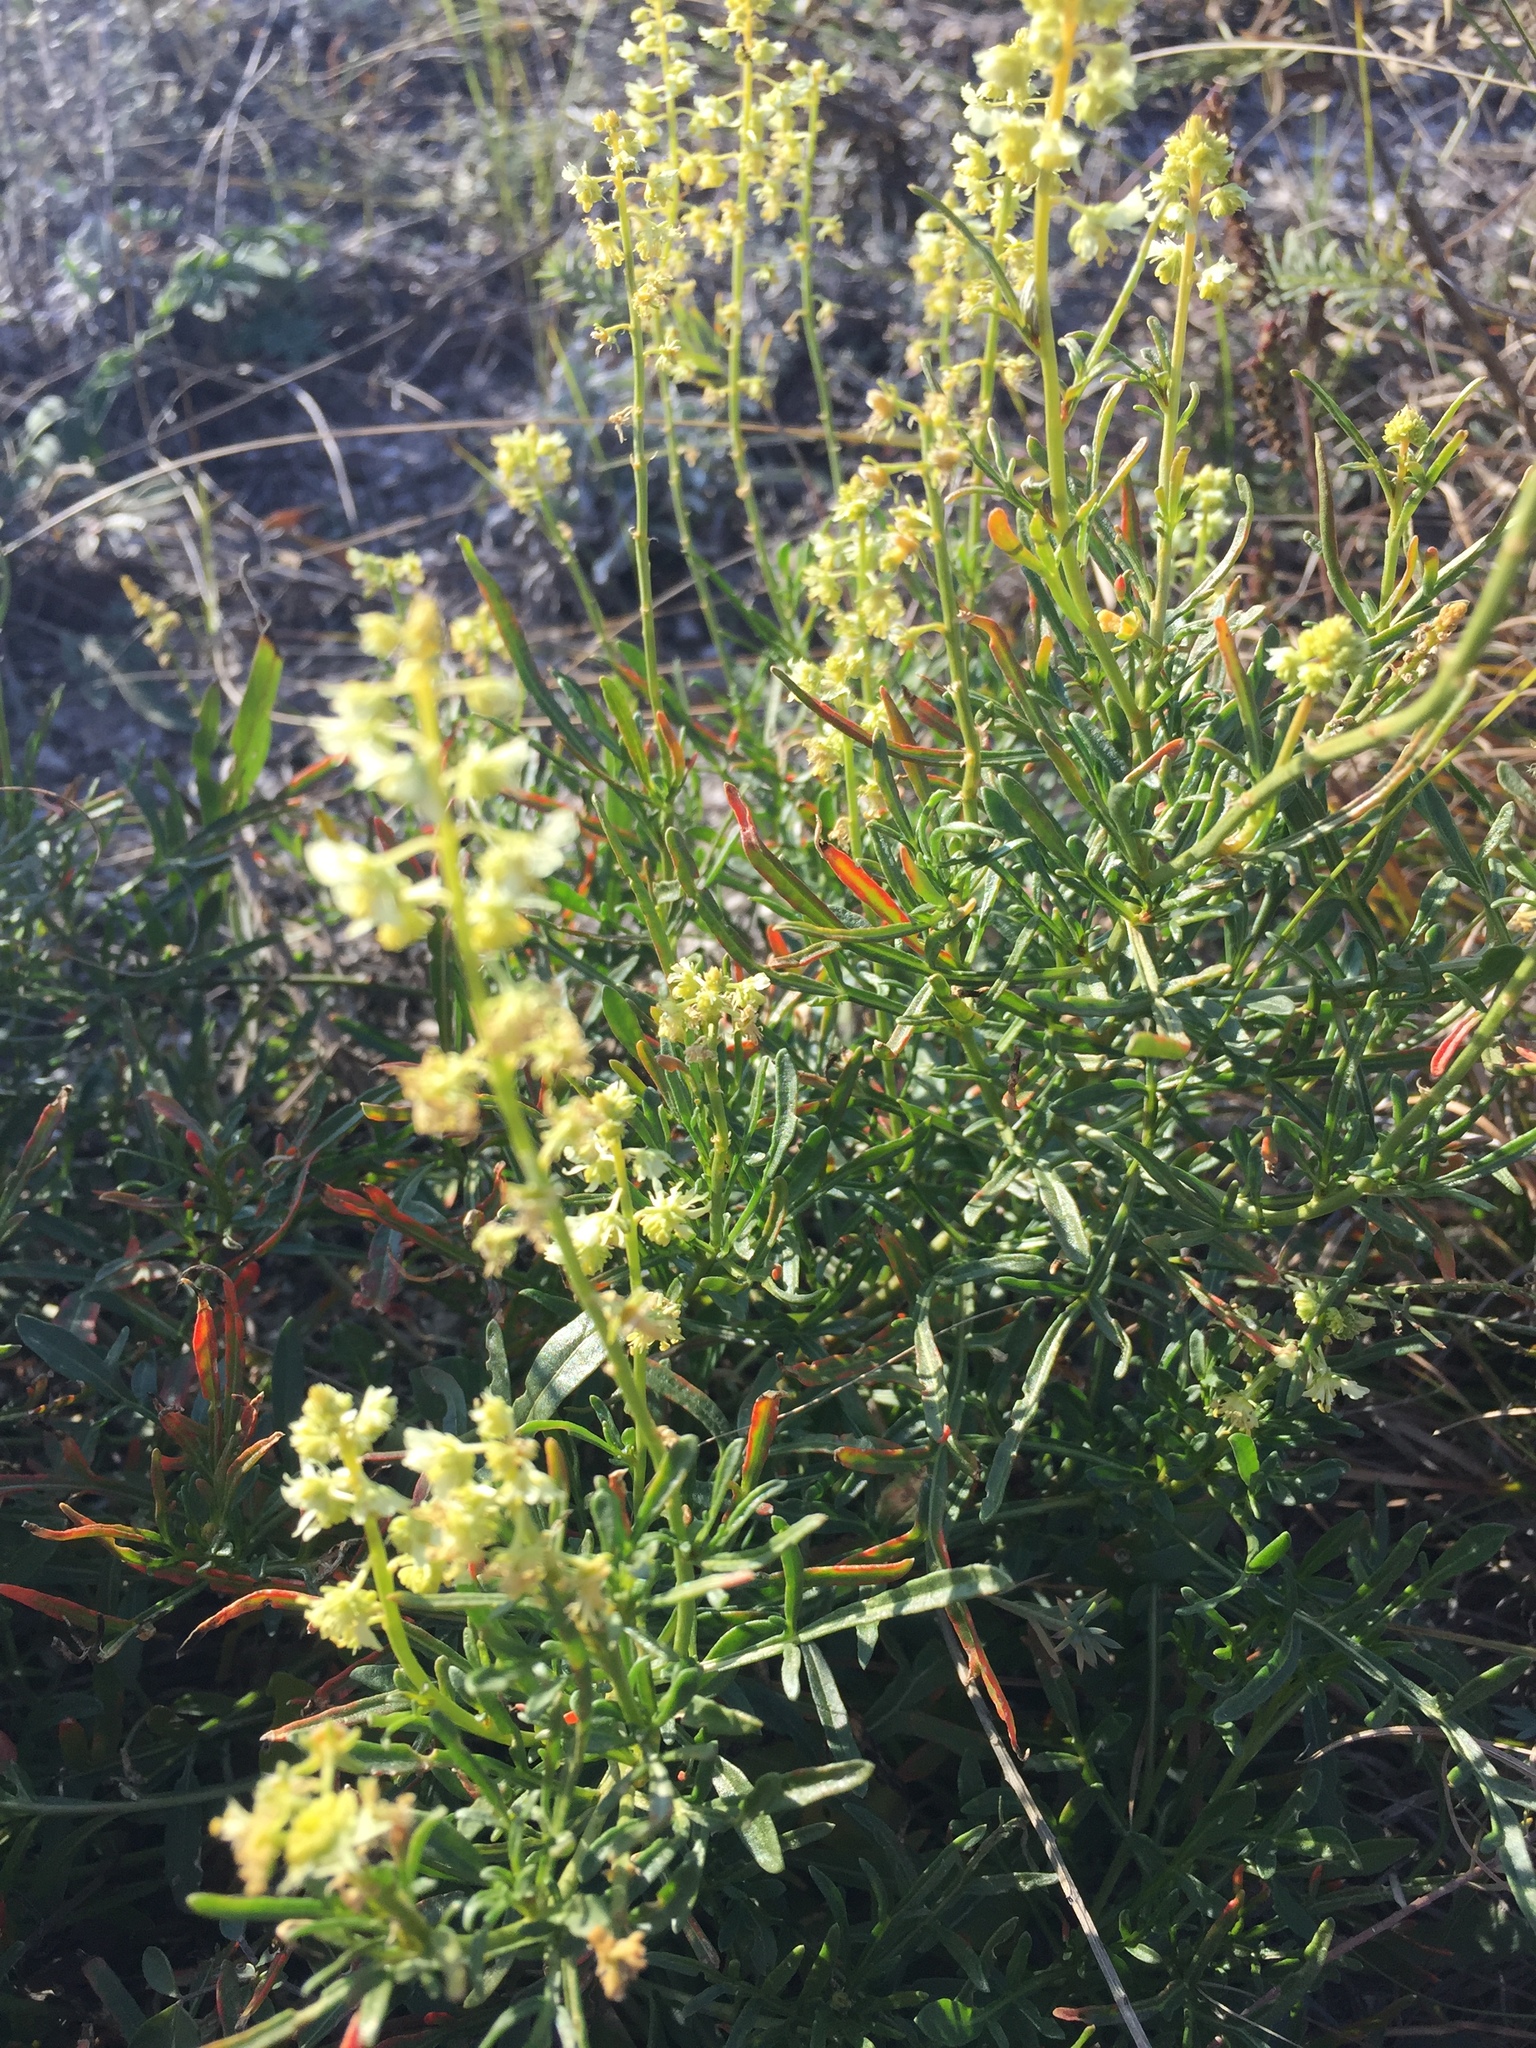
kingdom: Plantae
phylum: Tracheophyta
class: Magnoliopsida
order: Brassicales
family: Resedaceae
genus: Reseda
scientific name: Reseda lutea
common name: Wild mignonette
